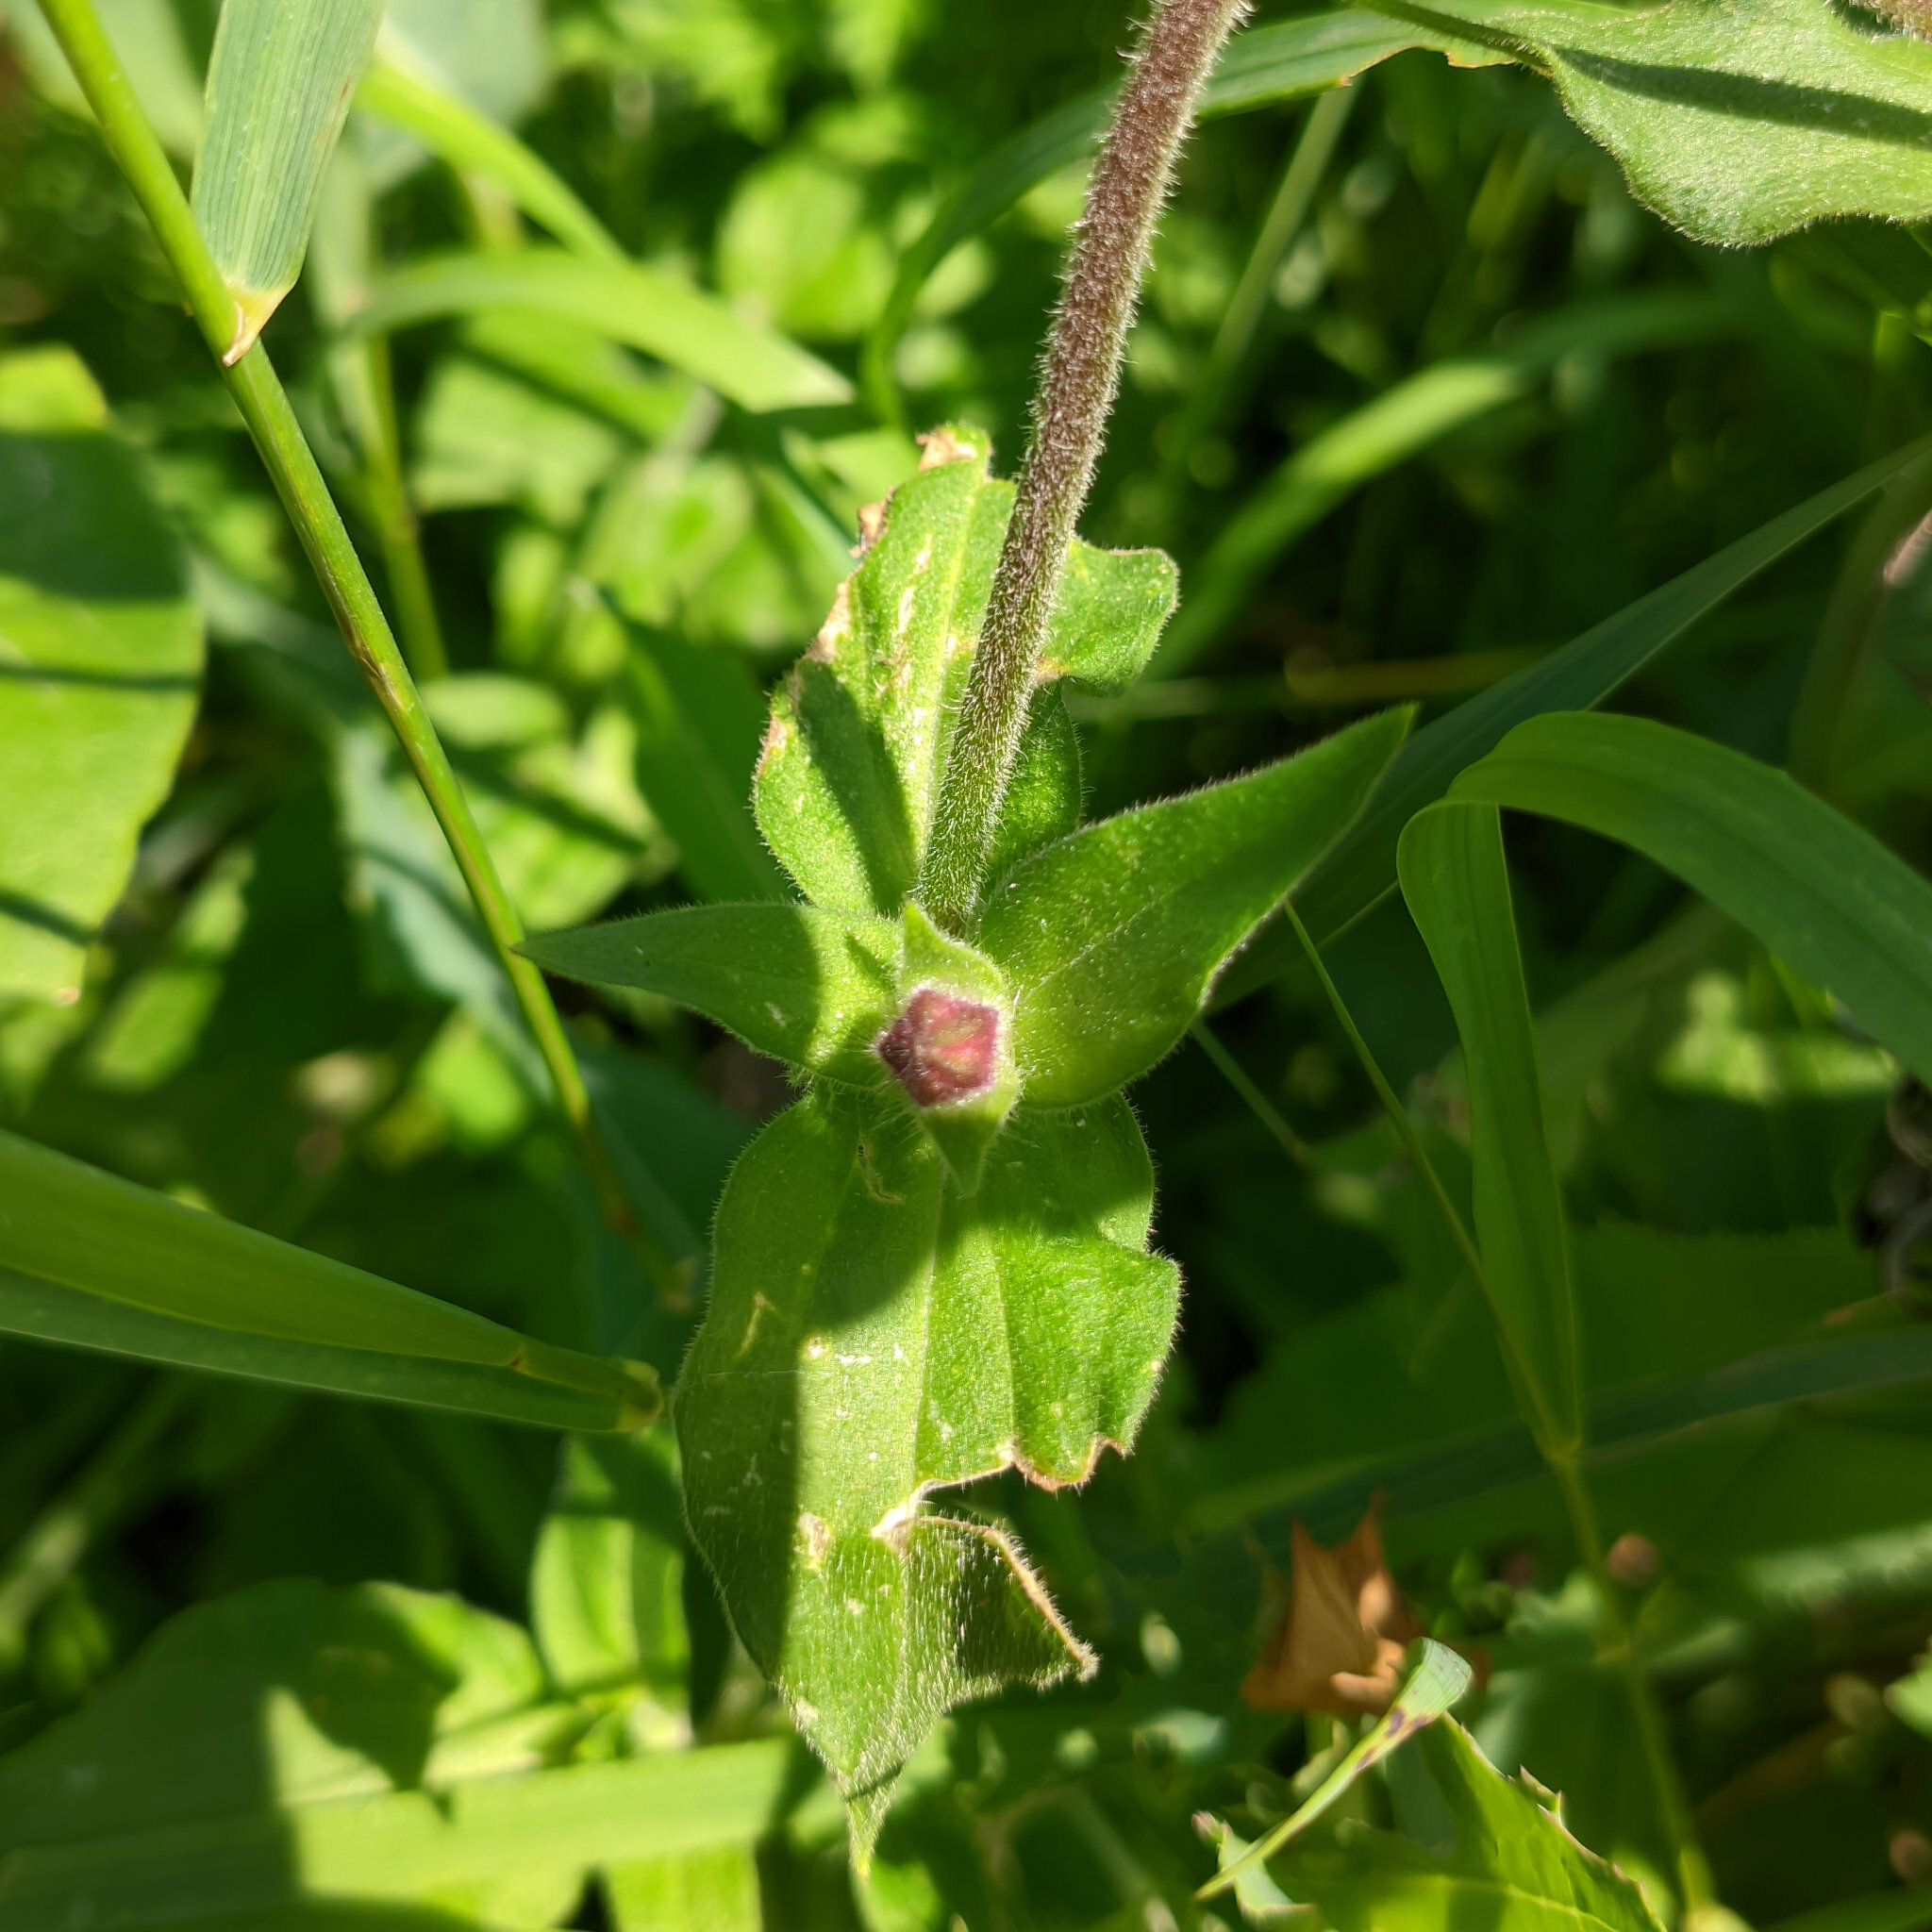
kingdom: Plantae
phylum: Tracheophyta
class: Magnoliopsida
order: Caryophyllales
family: Caryophyllaceae
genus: Silene
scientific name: Silene dioica
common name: Red campion
